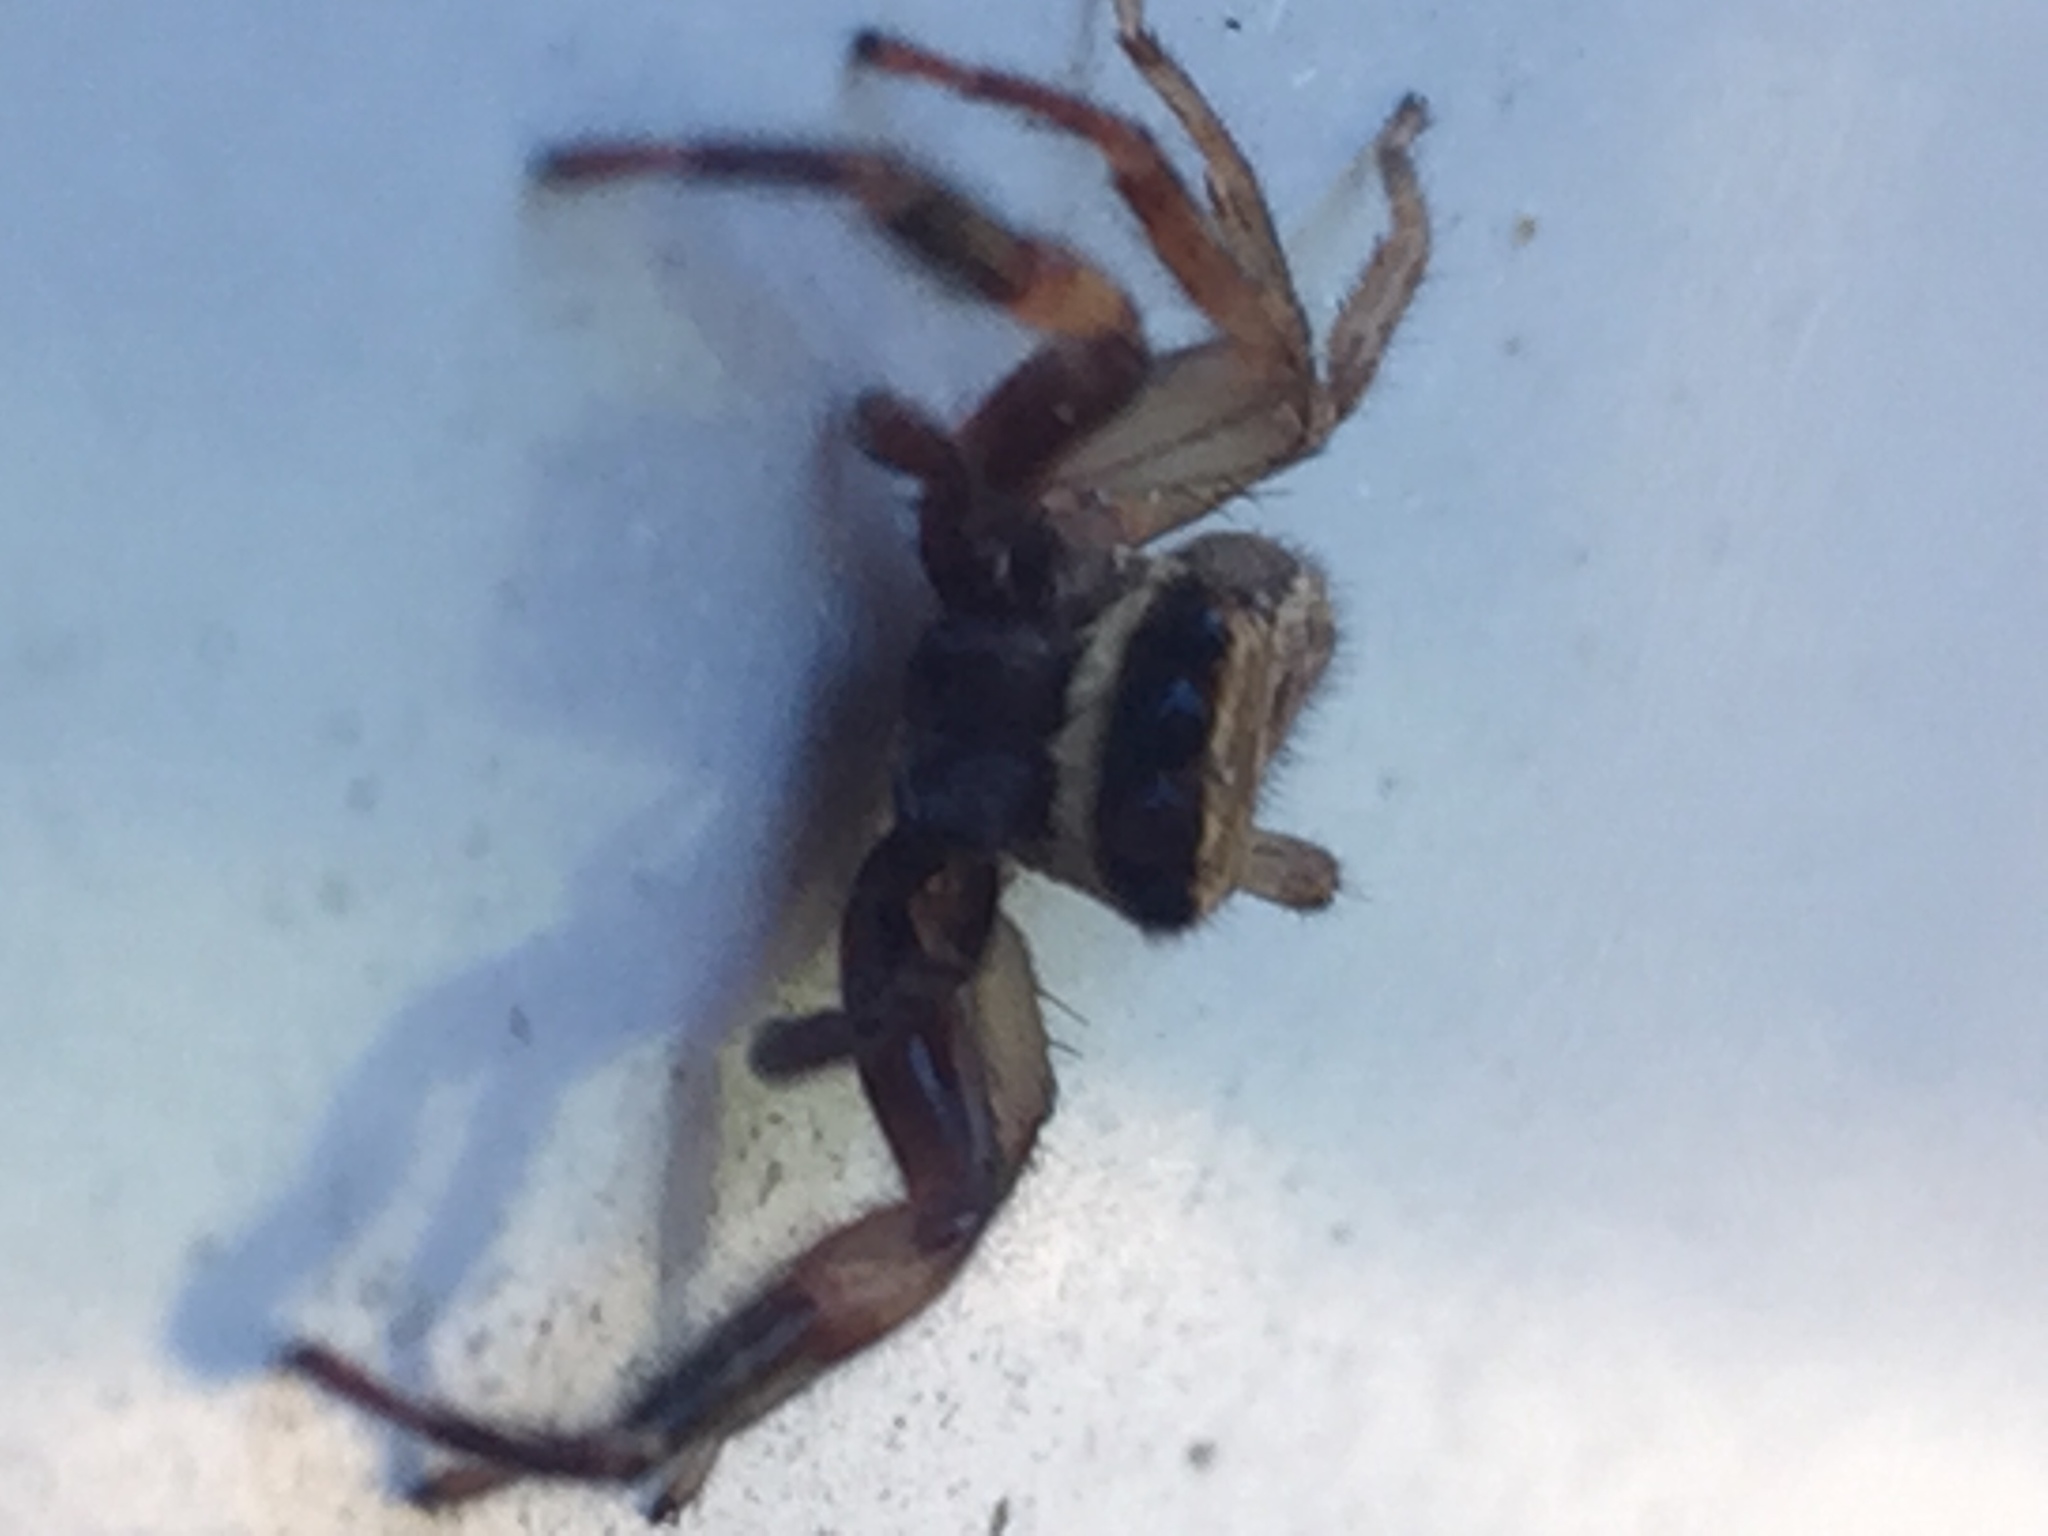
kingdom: Animalia
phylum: Arthropoda
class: Arachnida
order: Araneae
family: Salticidae
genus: Trite
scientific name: Trite auricoma
